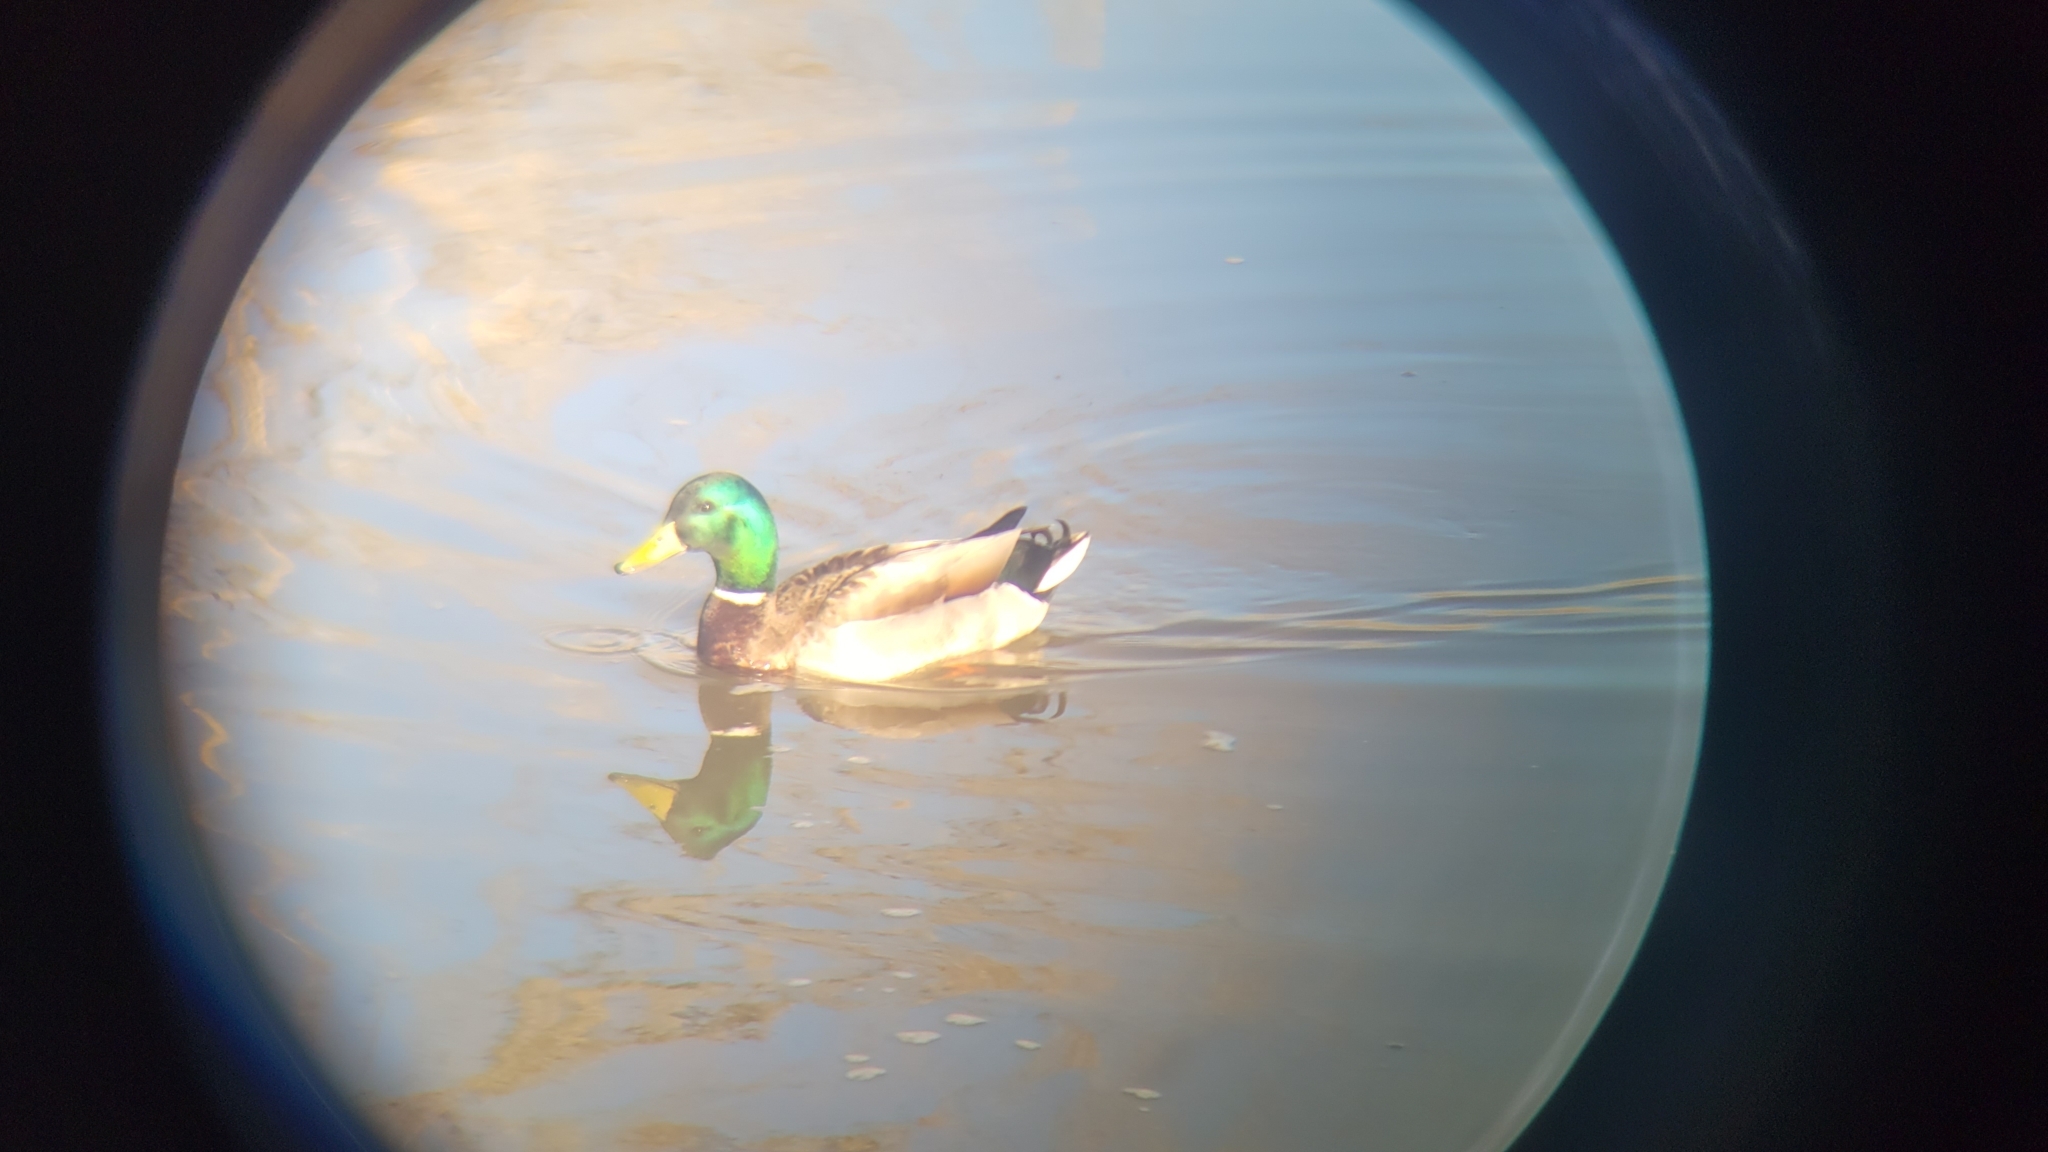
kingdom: Animalia
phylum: Chordata
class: Aves
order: Anseriformes
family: Anatidae
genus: Anas
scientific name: Anas platyrhynchos
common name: Mallard
